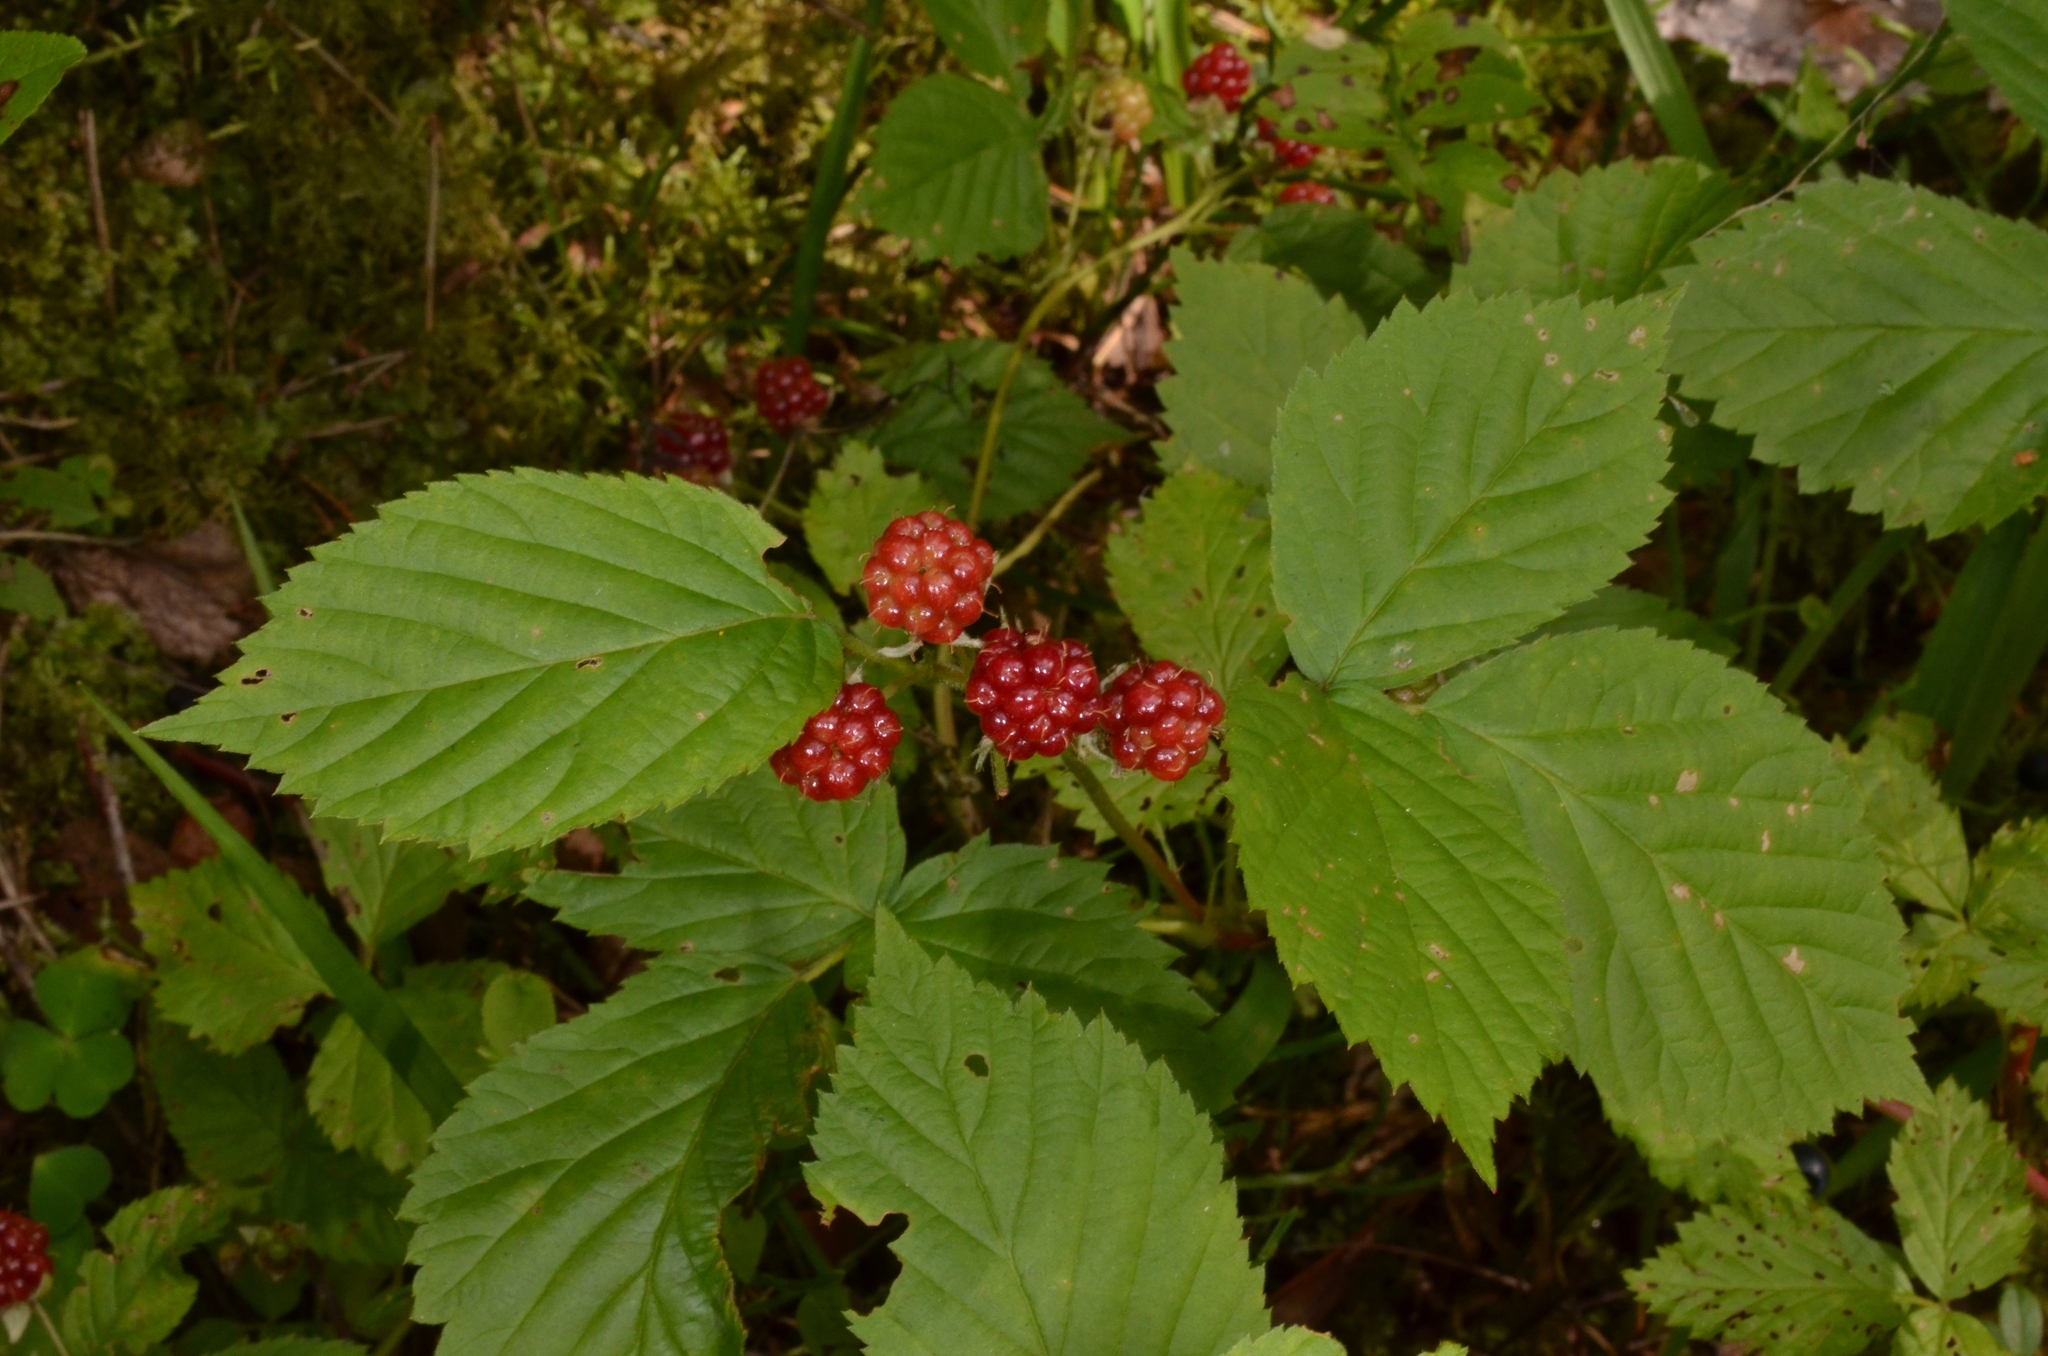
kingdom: Plantae
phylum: Tracheophyta
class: Magnoliopsida
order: Rosales
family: Rosaceae
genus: Rubus
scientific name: Rubus polonicus
